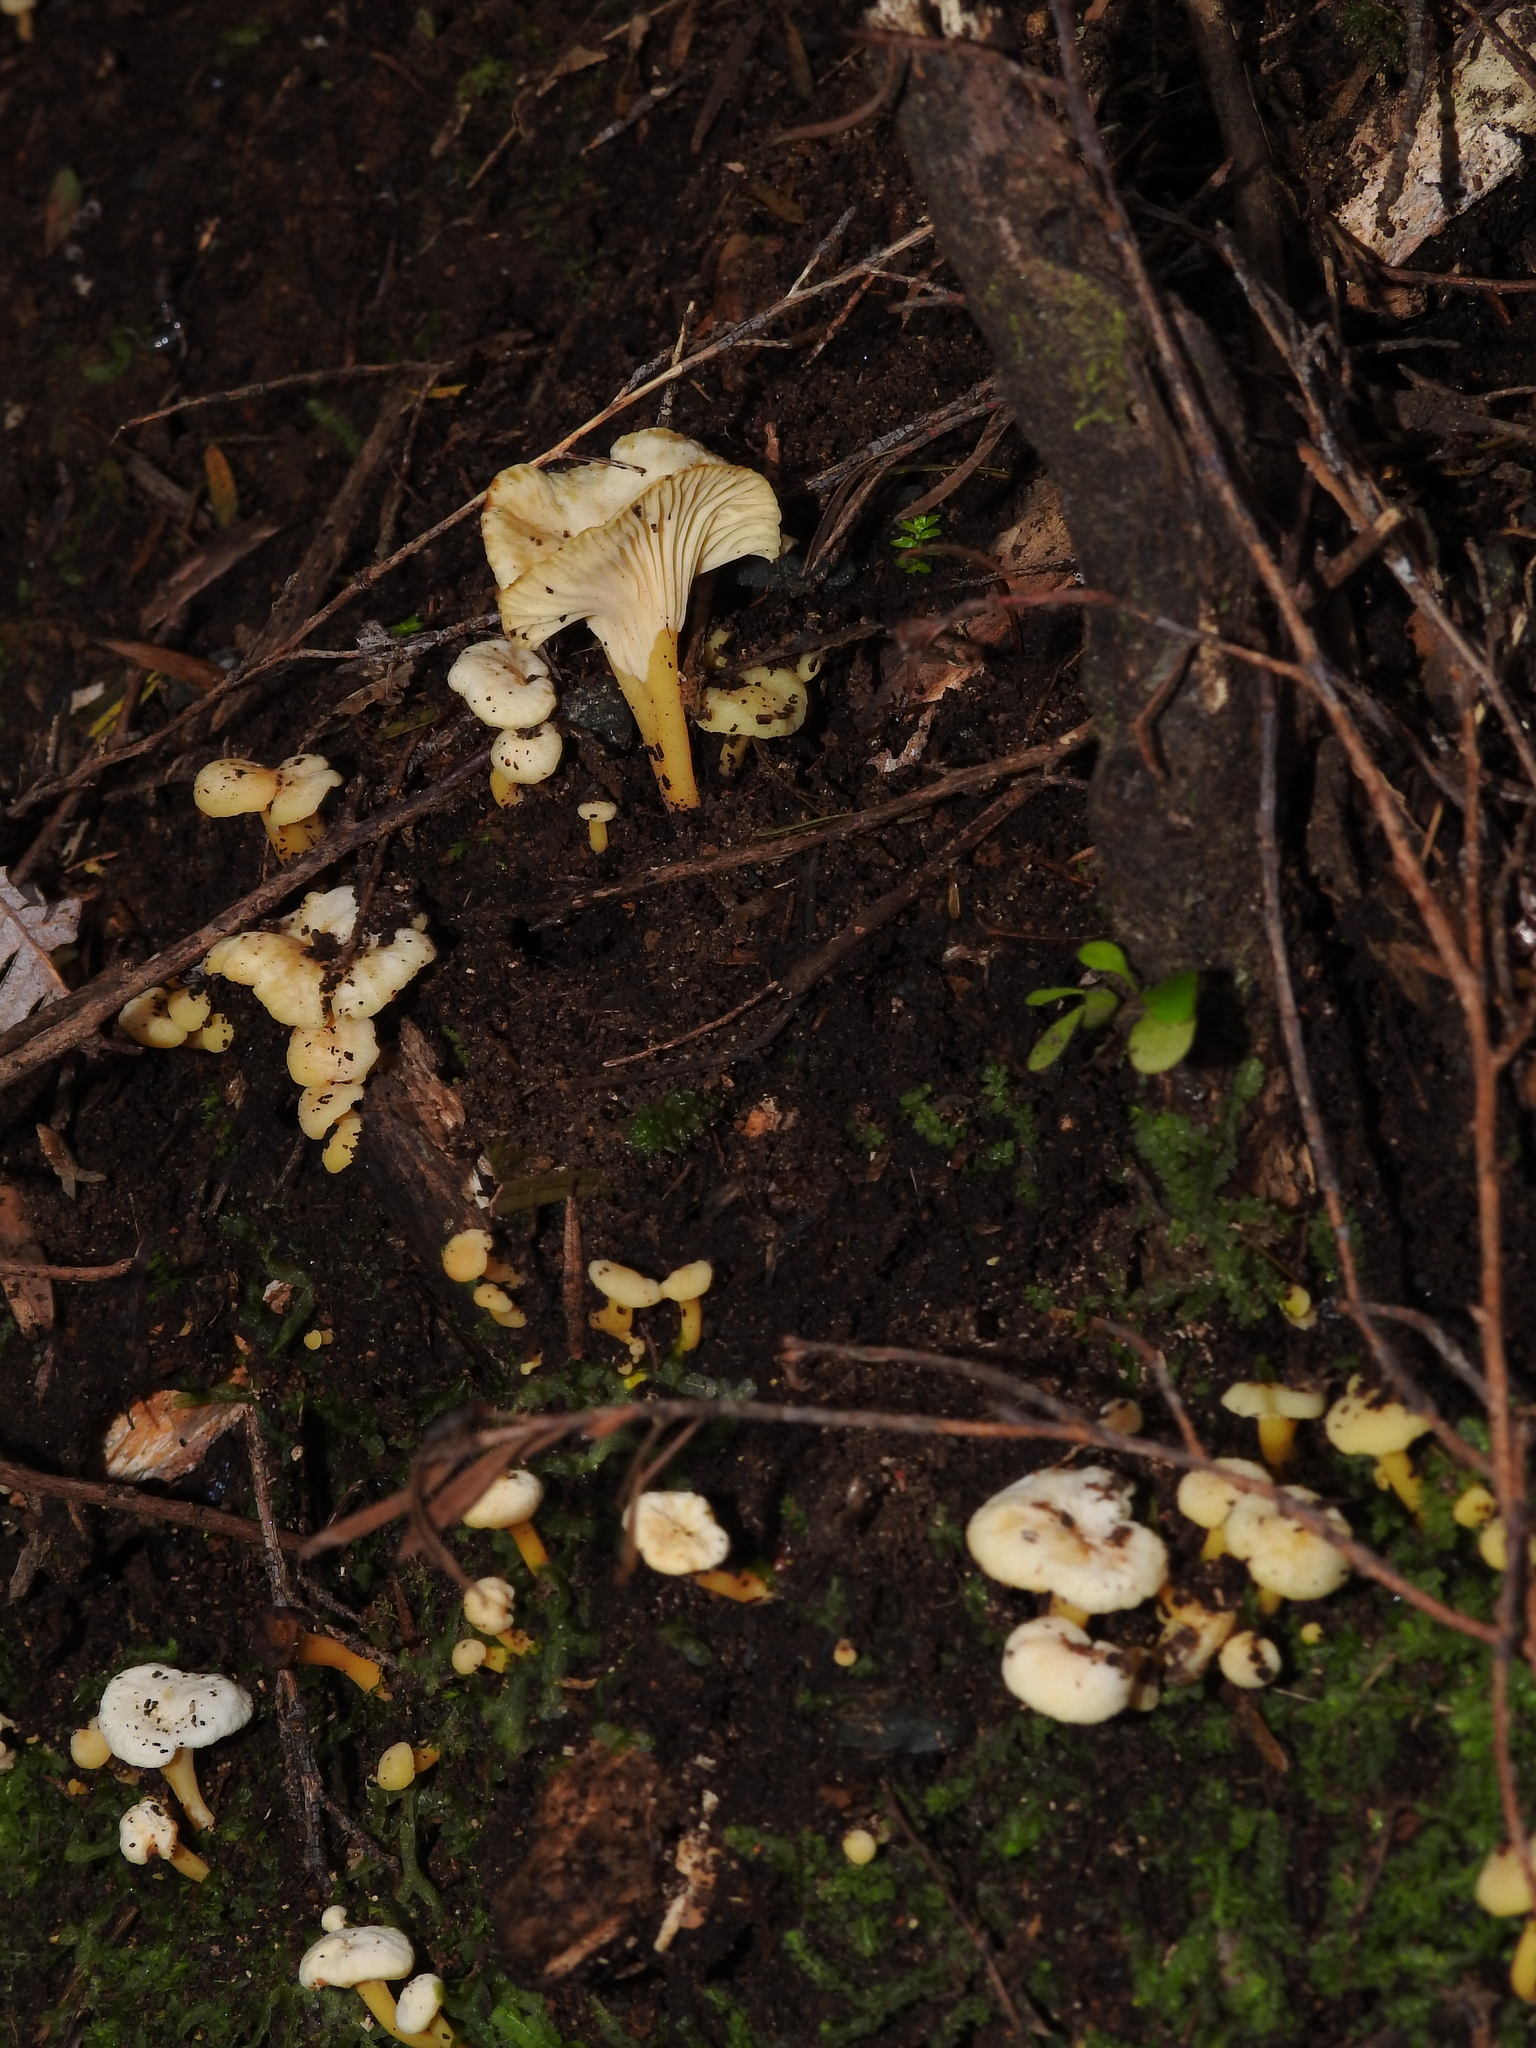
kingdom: Fungi
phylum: Basidiomycota
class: Agaricomycetes
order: Cantharellales
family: Hydnaceae
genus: Cantharellus
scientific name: Cantharellus wellingtonensis
